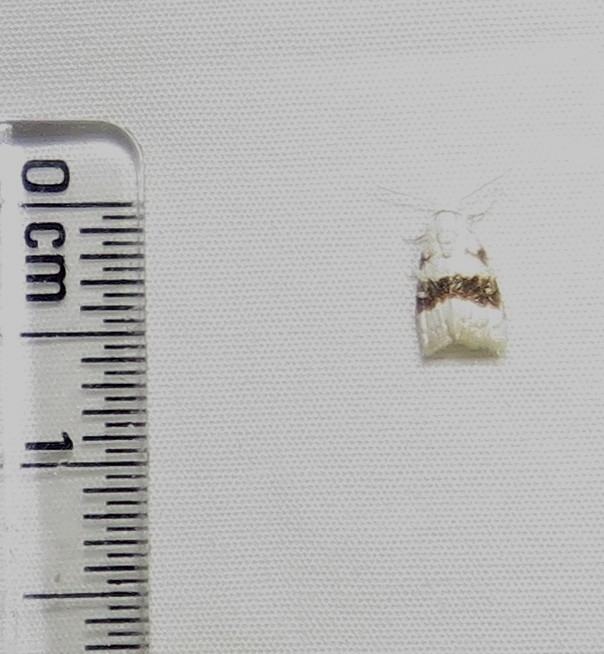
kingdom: Animalia
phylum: Arthropoda
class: Insecta
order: Lepidoptera
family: Nolidae
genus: Nola
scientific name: Nola taeniata
